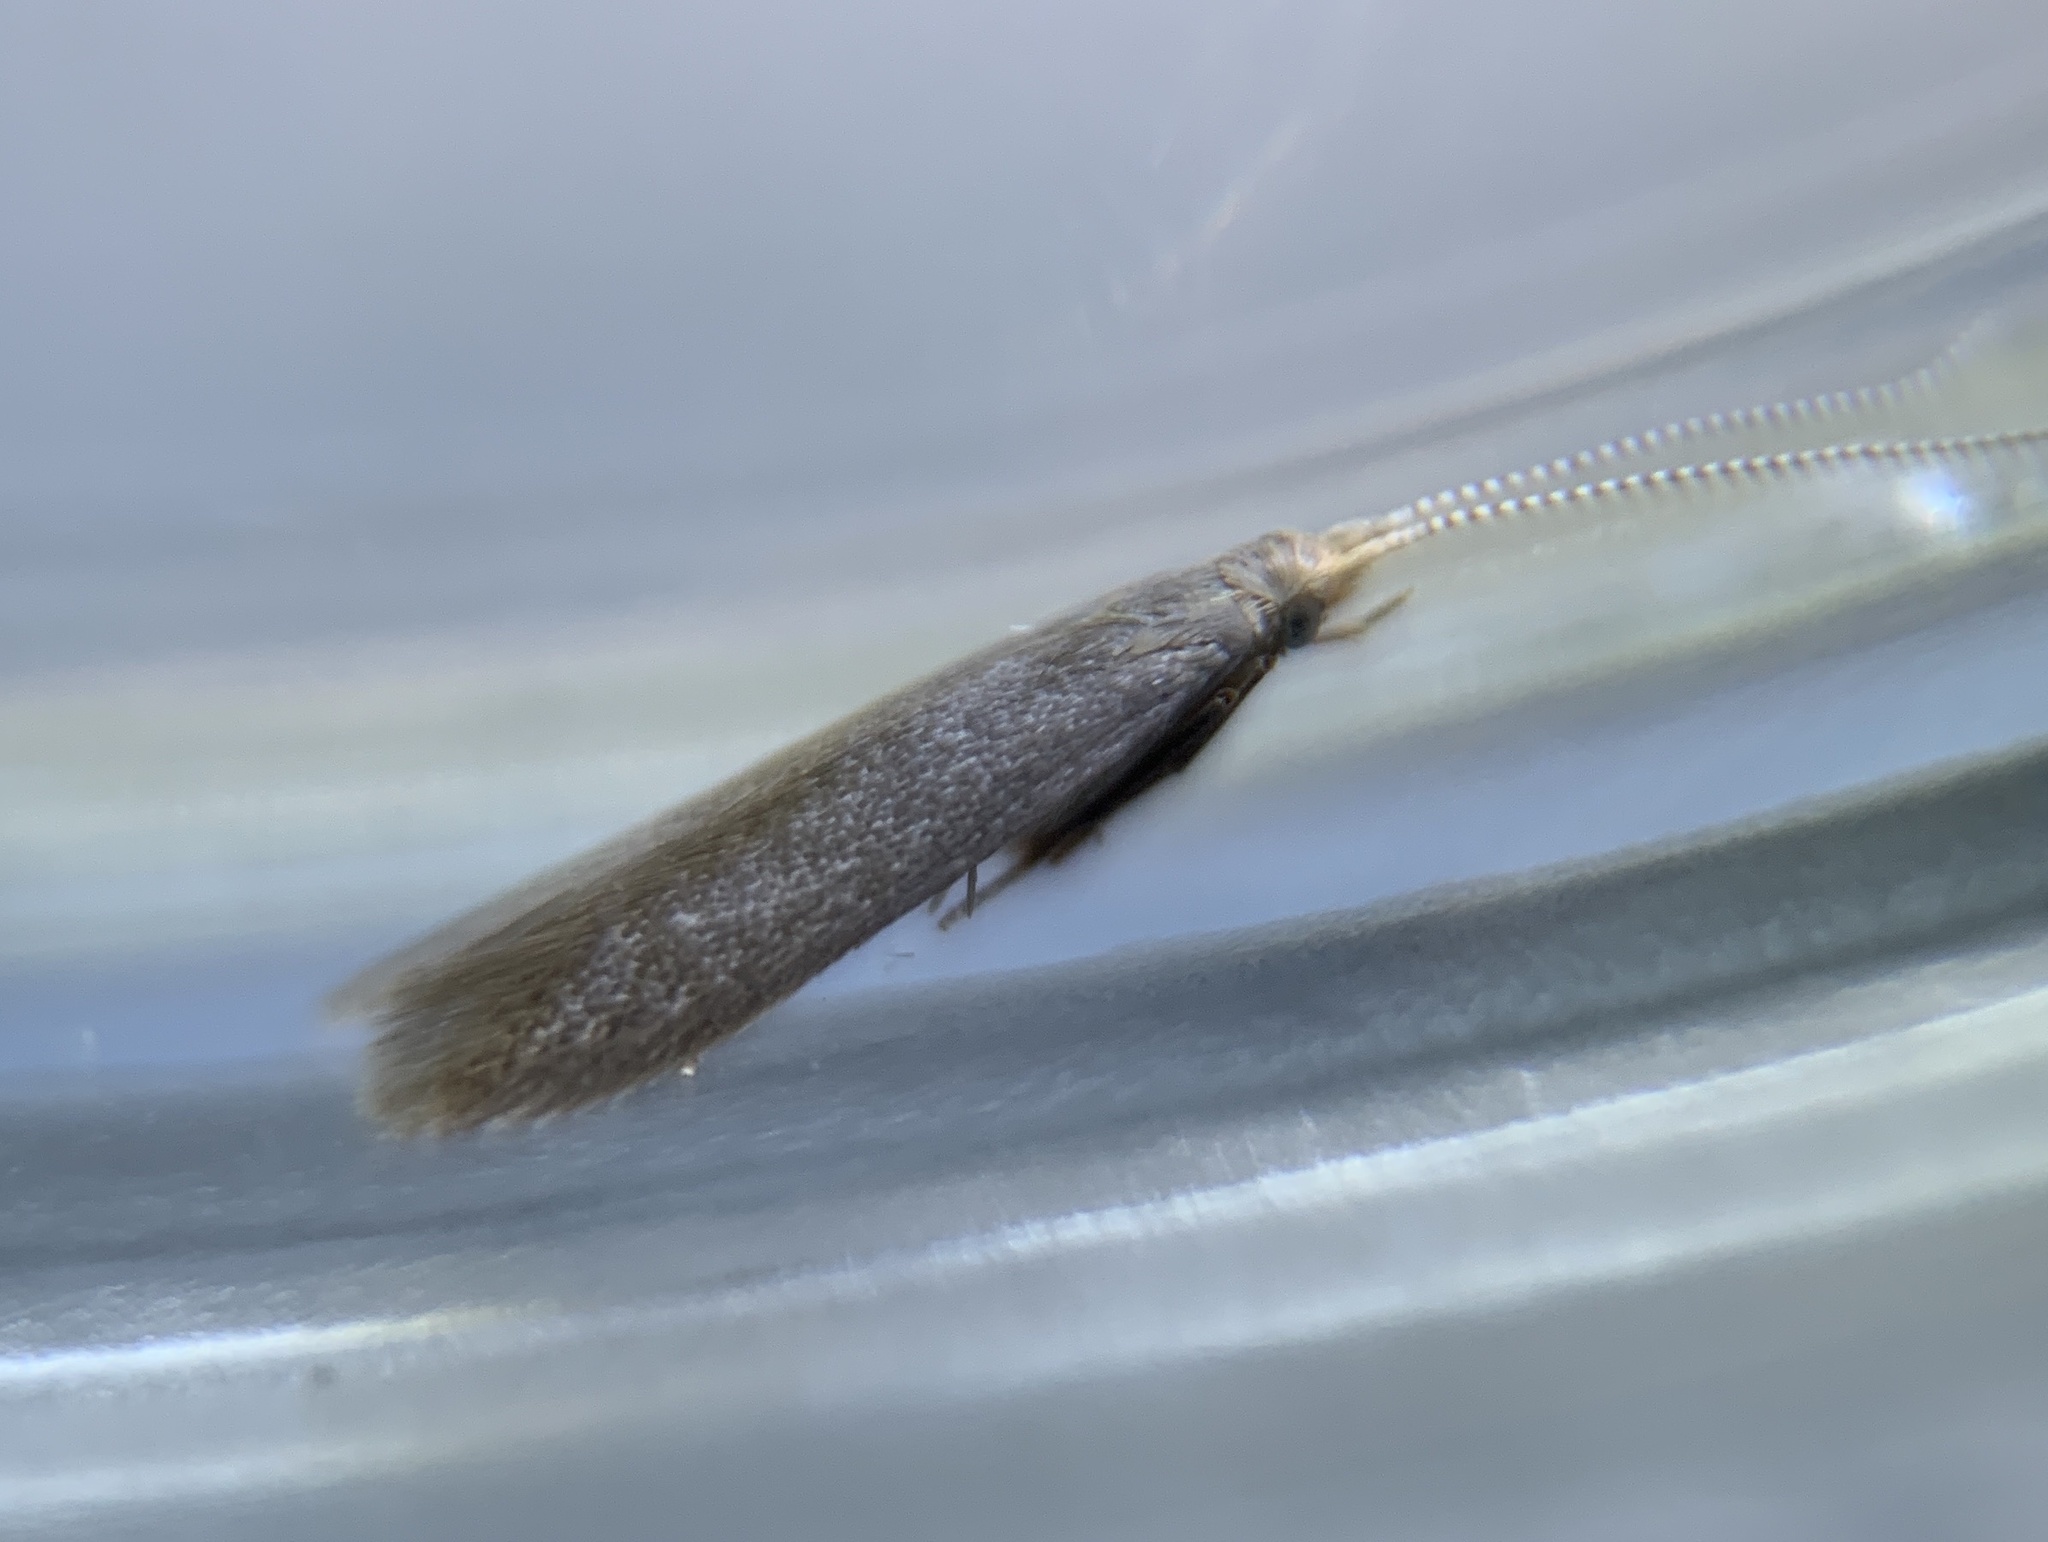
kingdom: Animalia
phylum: Arthropoda
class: Insecta
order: Lepidoptera
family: Coleophoridae
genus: Coleophora
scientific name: Coleophora spinella
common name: Apple & plum case-bearer
